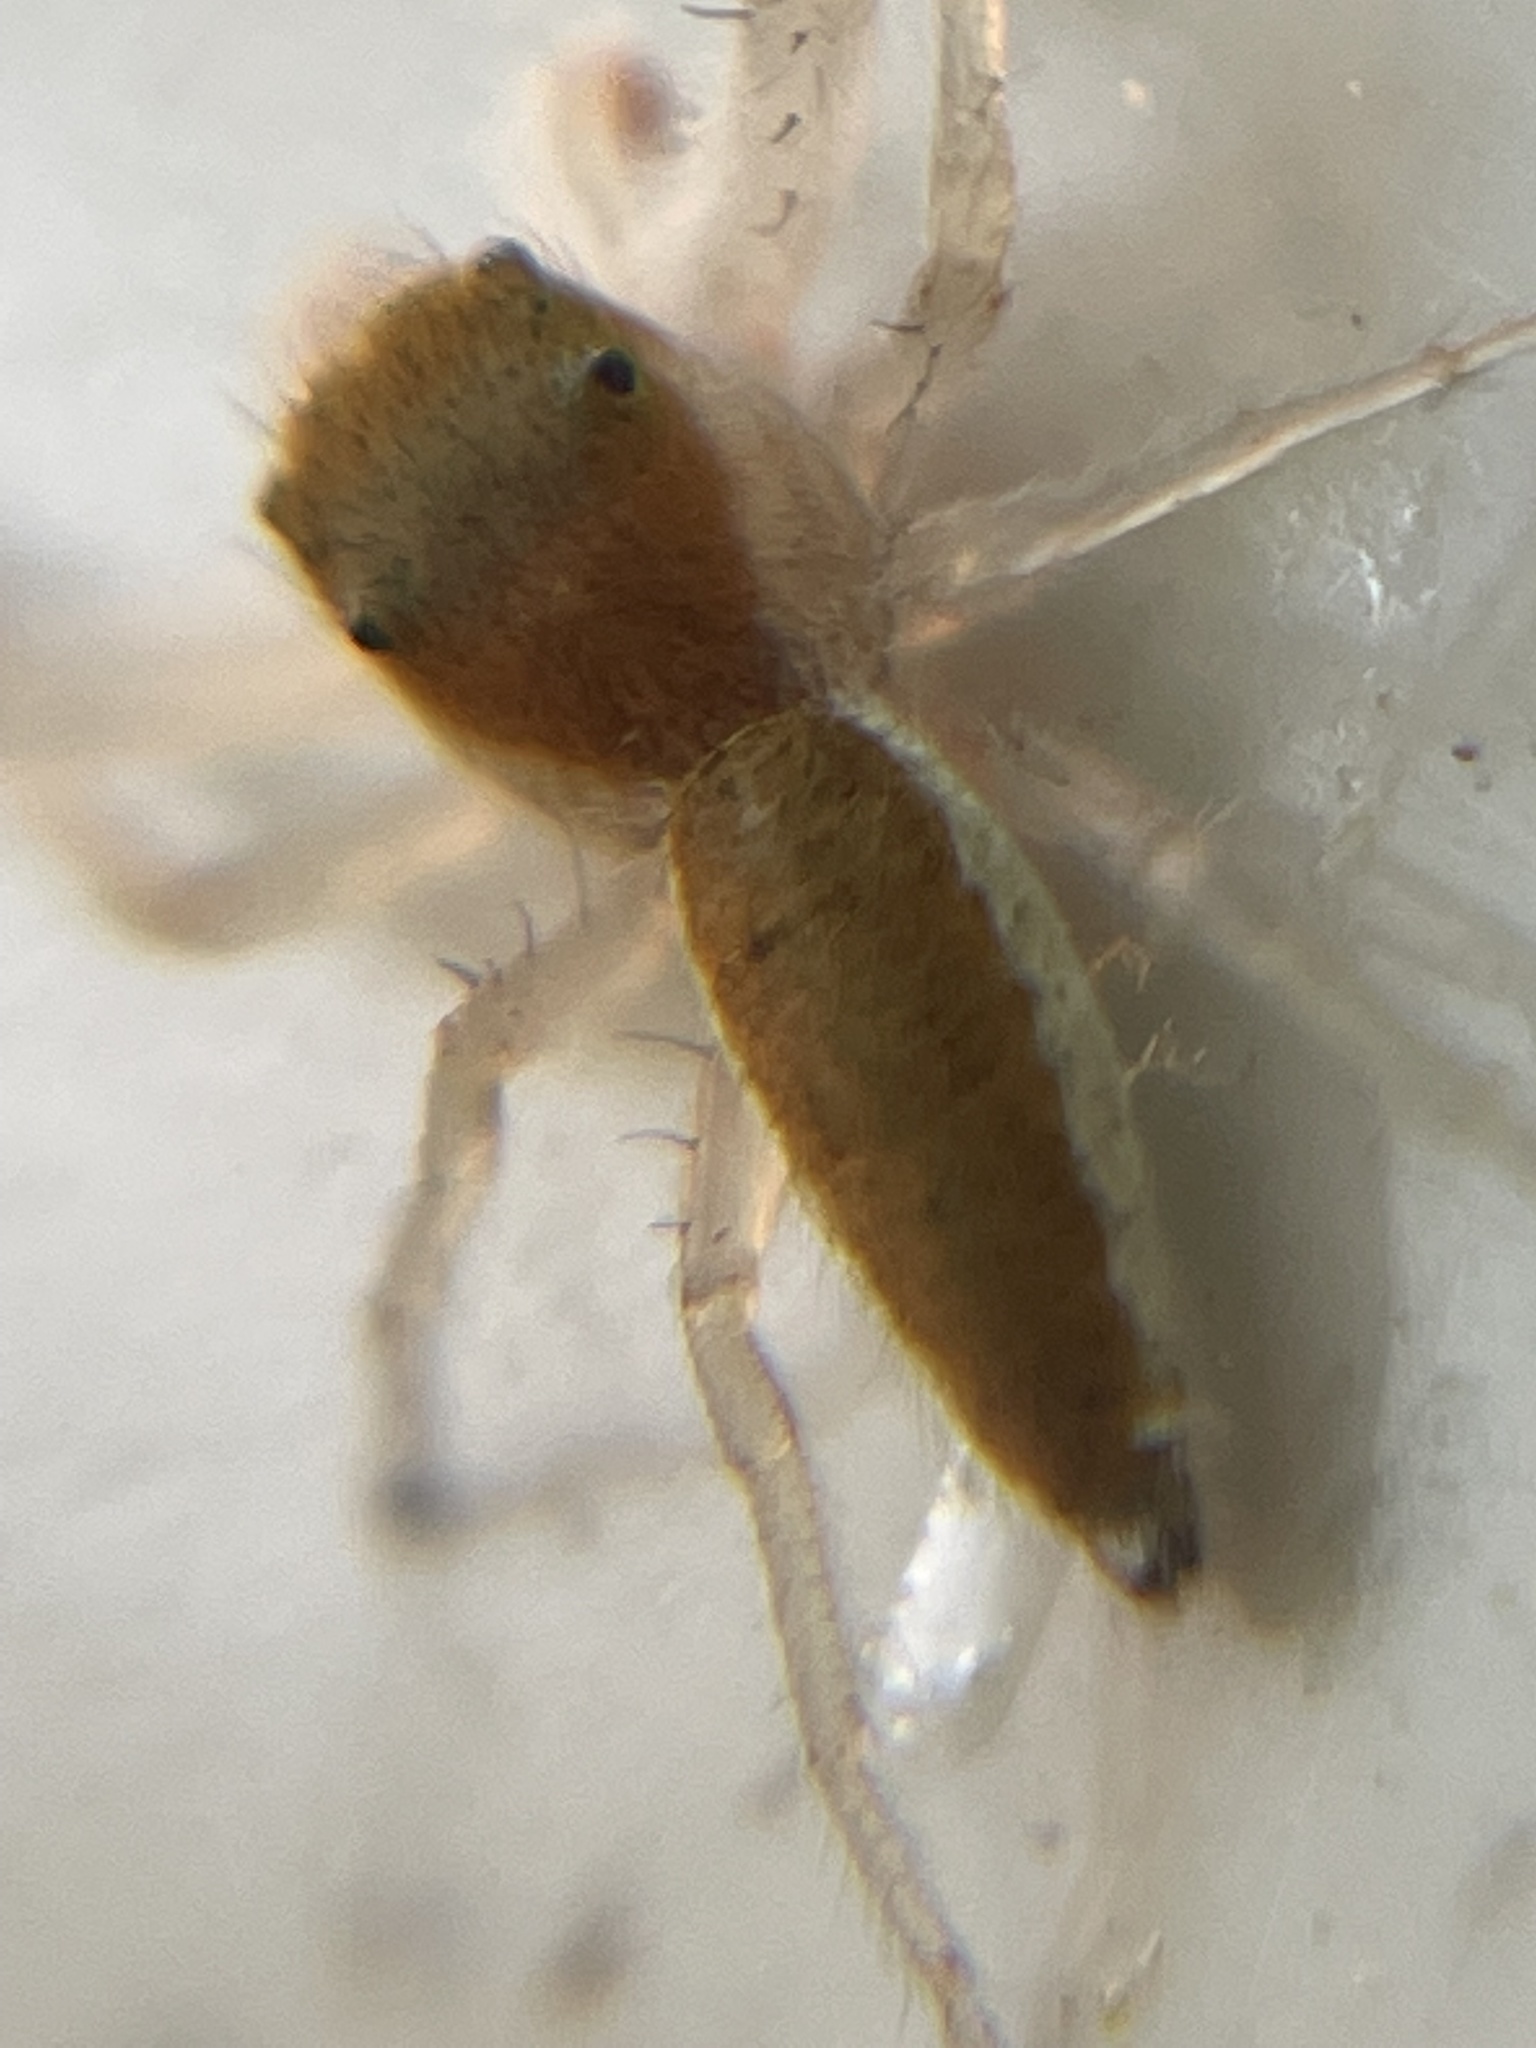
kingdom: Animalia
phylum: Arthropoda
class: Arachnida
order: Araneae
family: Salticidae
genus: Hentzia
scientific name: Hentzia mitrata
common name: White-jawed jumping spider
